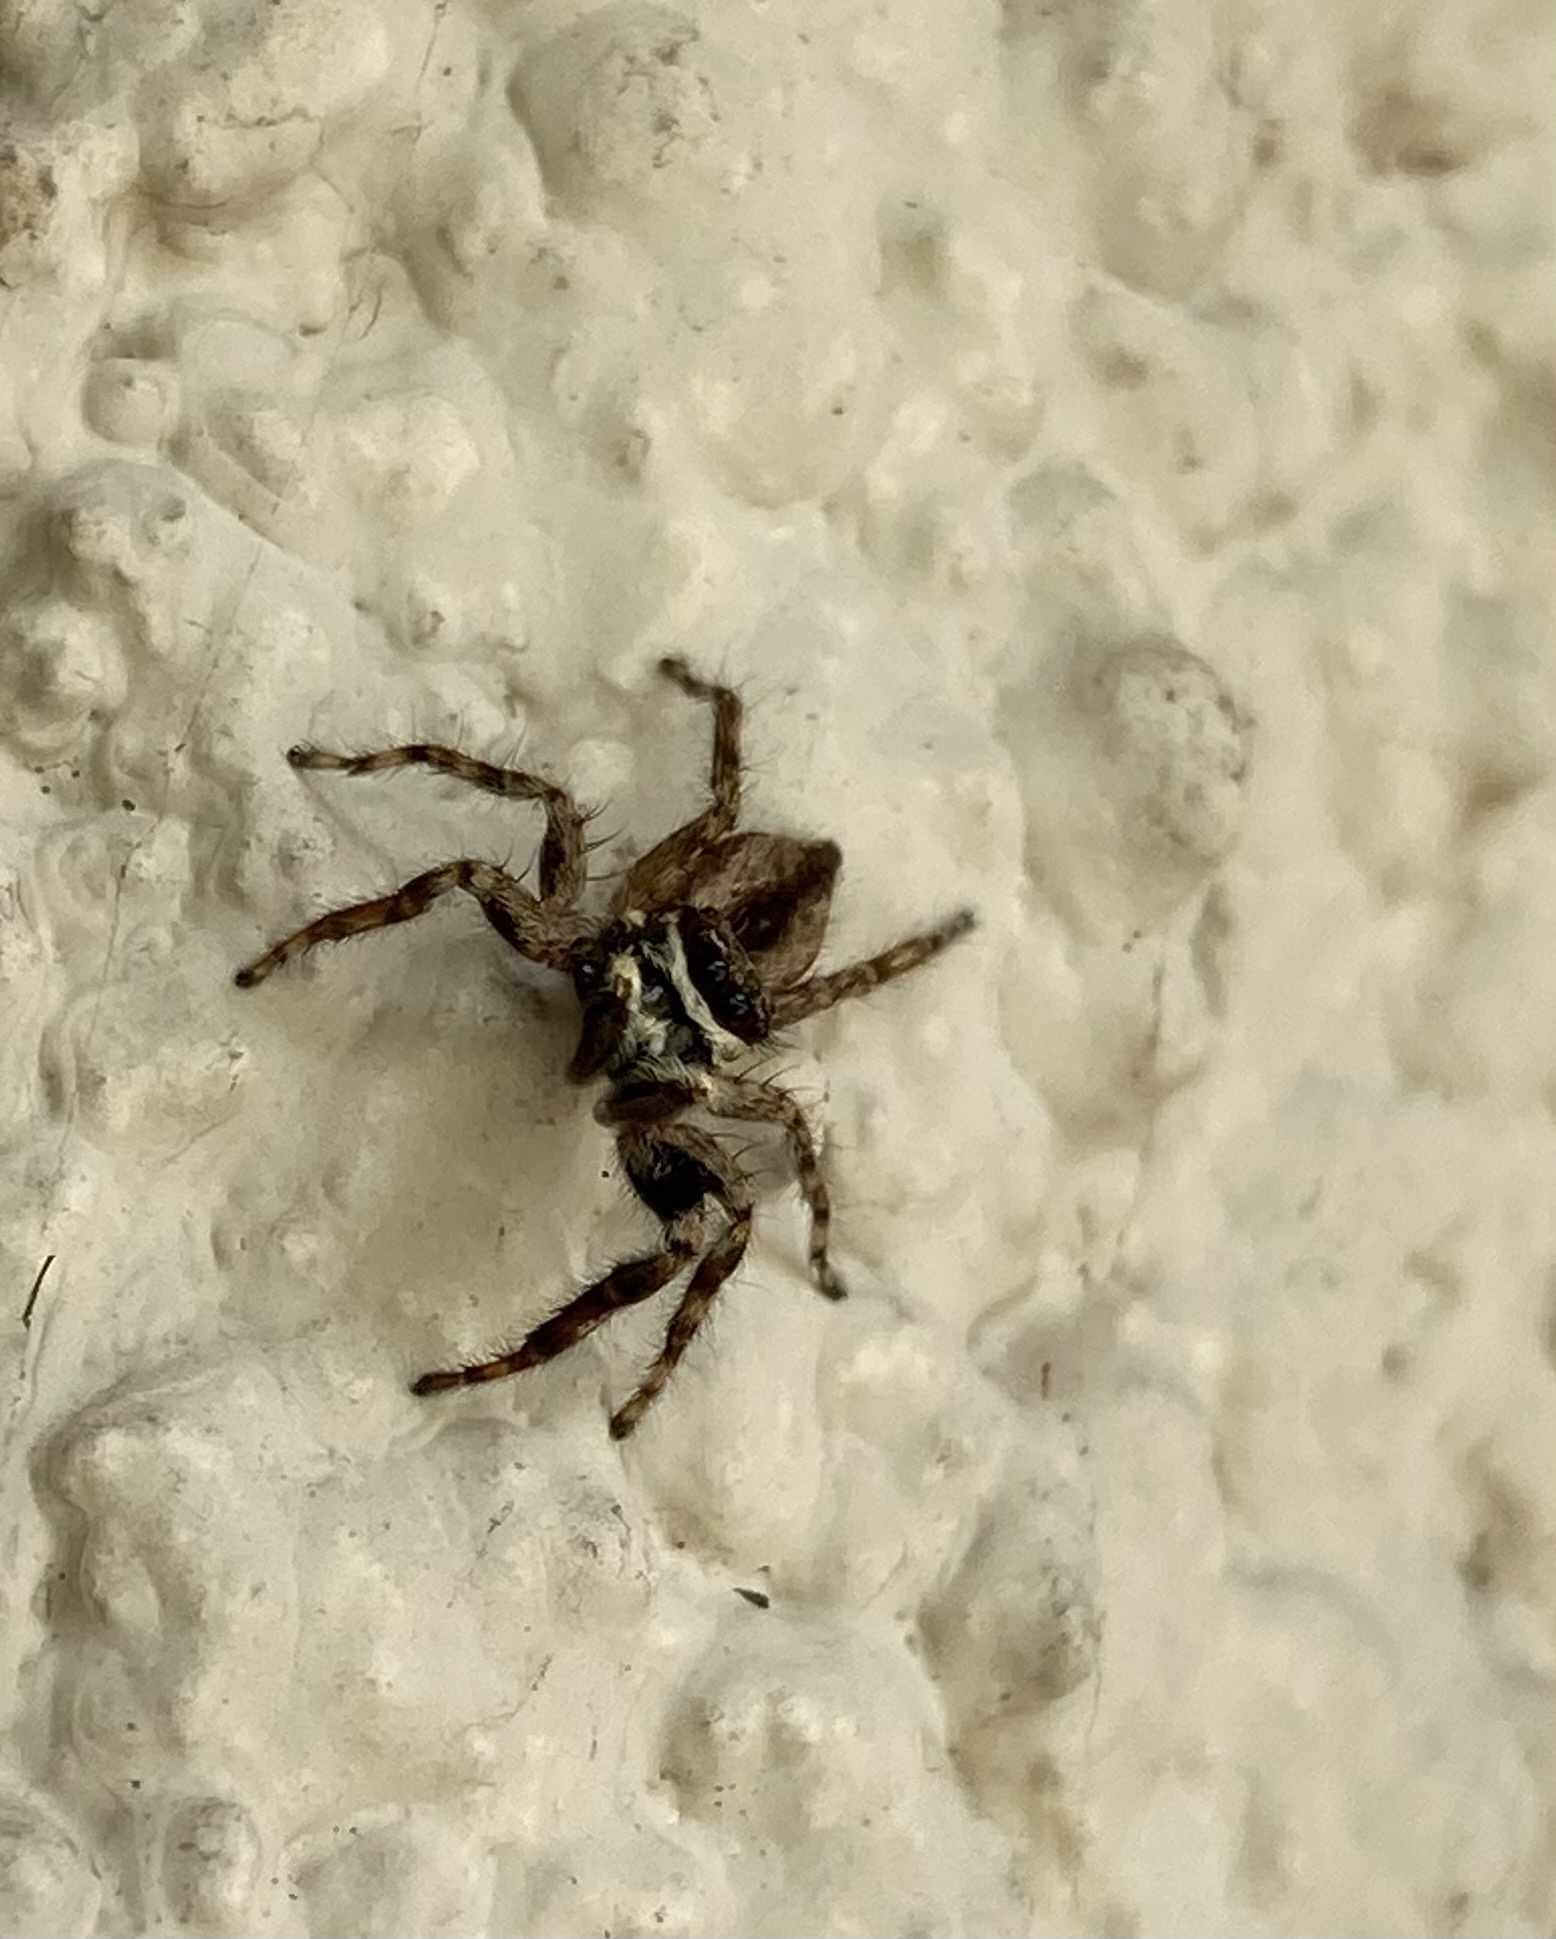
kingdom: Animalia
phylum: Arthropoda
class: Arachnida
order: Araneae
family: Salticidae
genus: Menemerus
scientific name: Menemerus bivittatus
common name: Gray wall jumper
